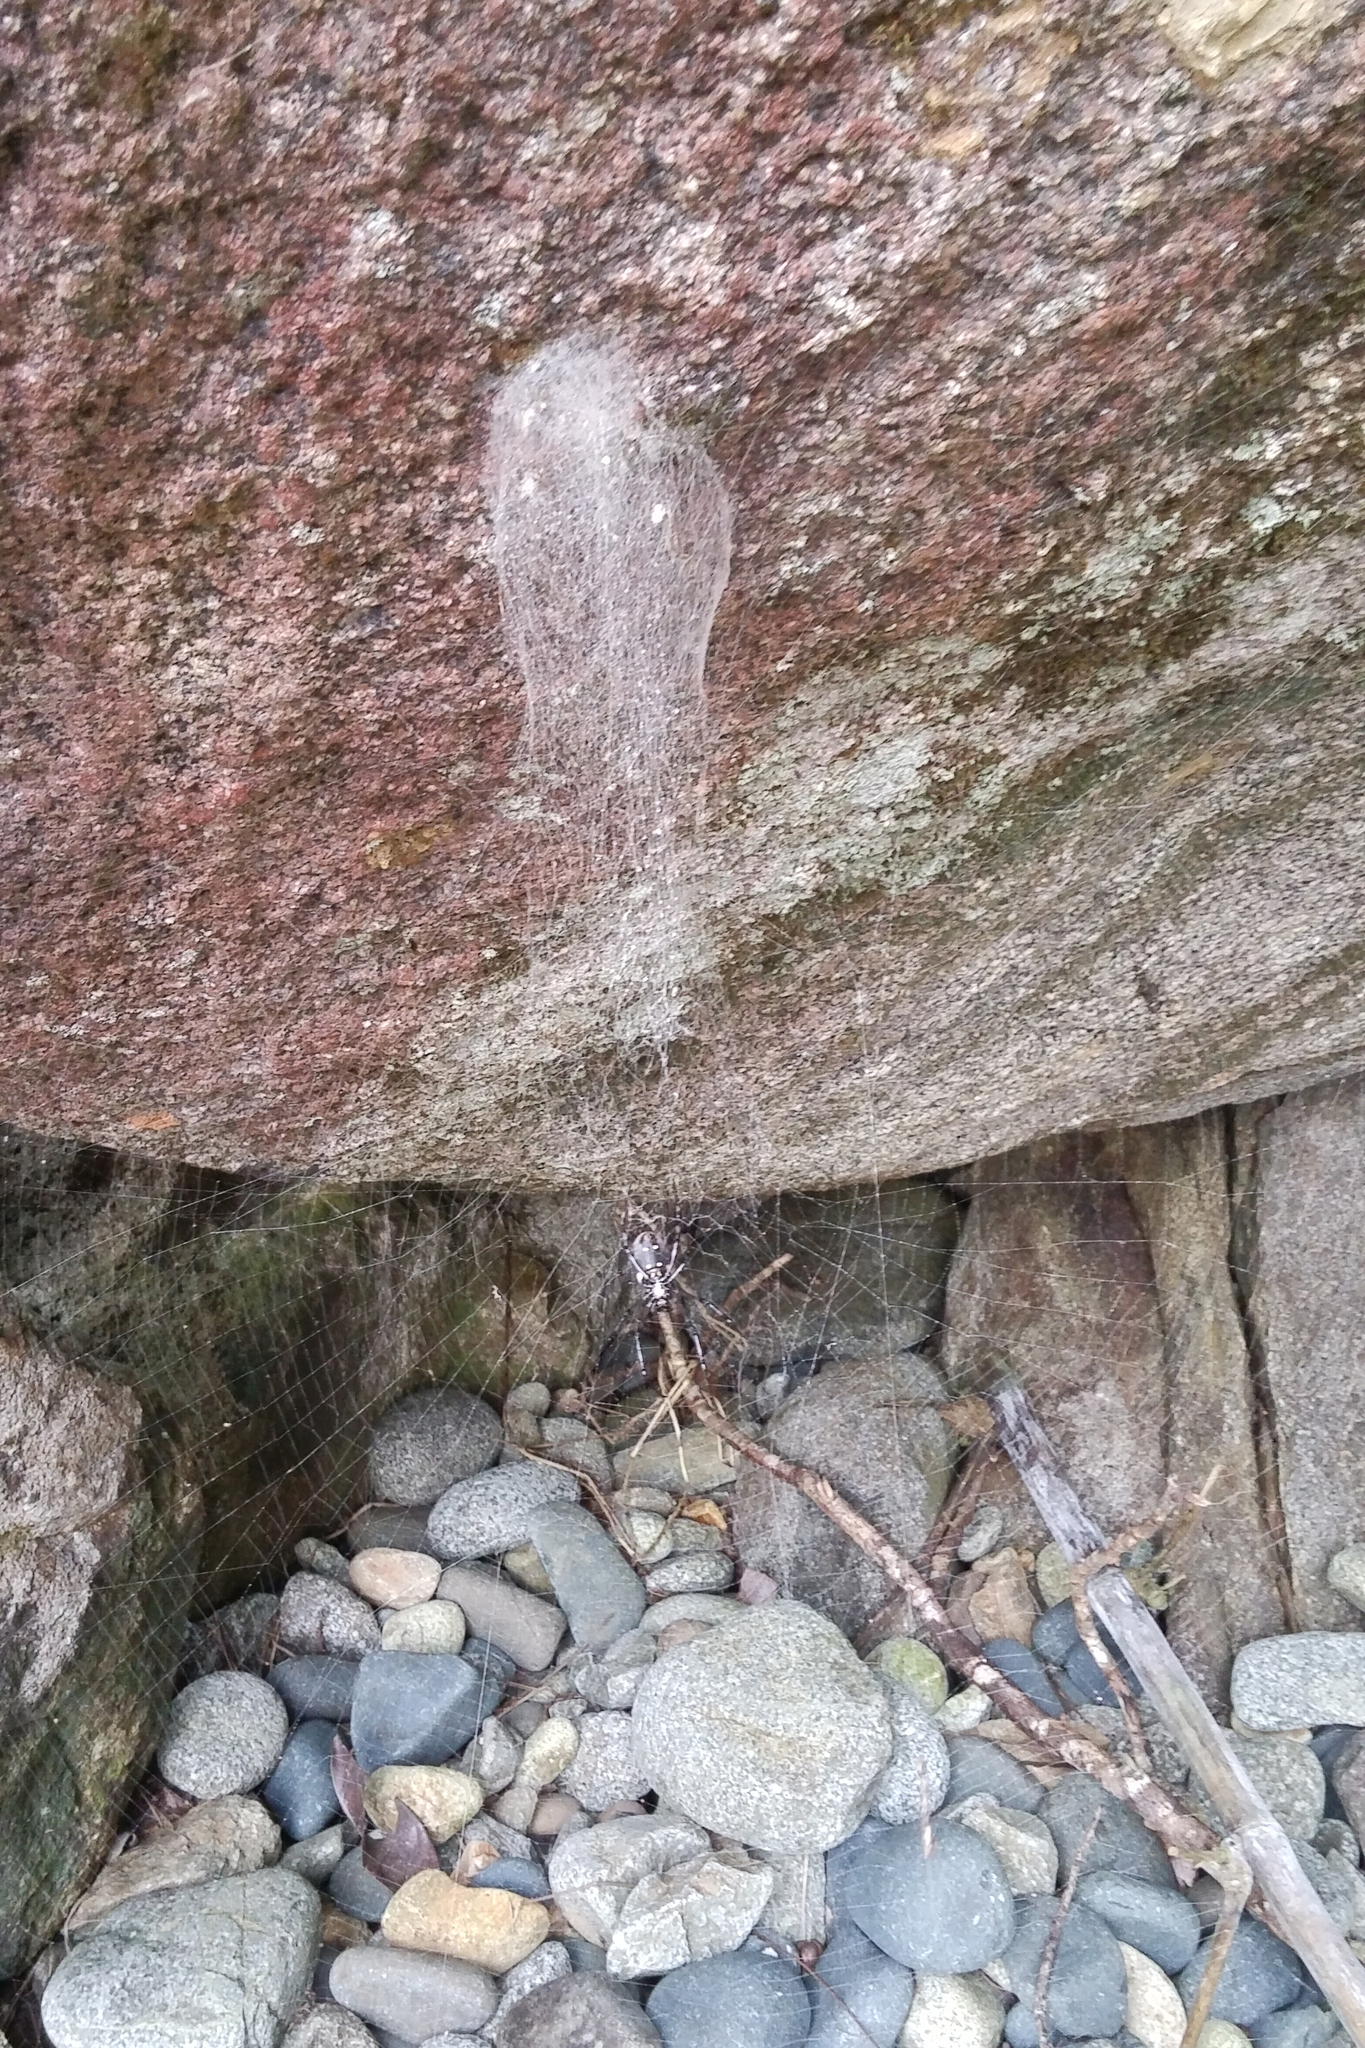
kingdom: Animalia
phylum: Arthropoda
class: Arachnida
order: Araneae
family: Araneidae
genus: Nephilingis
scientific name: Nephilingis livida
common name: Madagascar hermit spider
